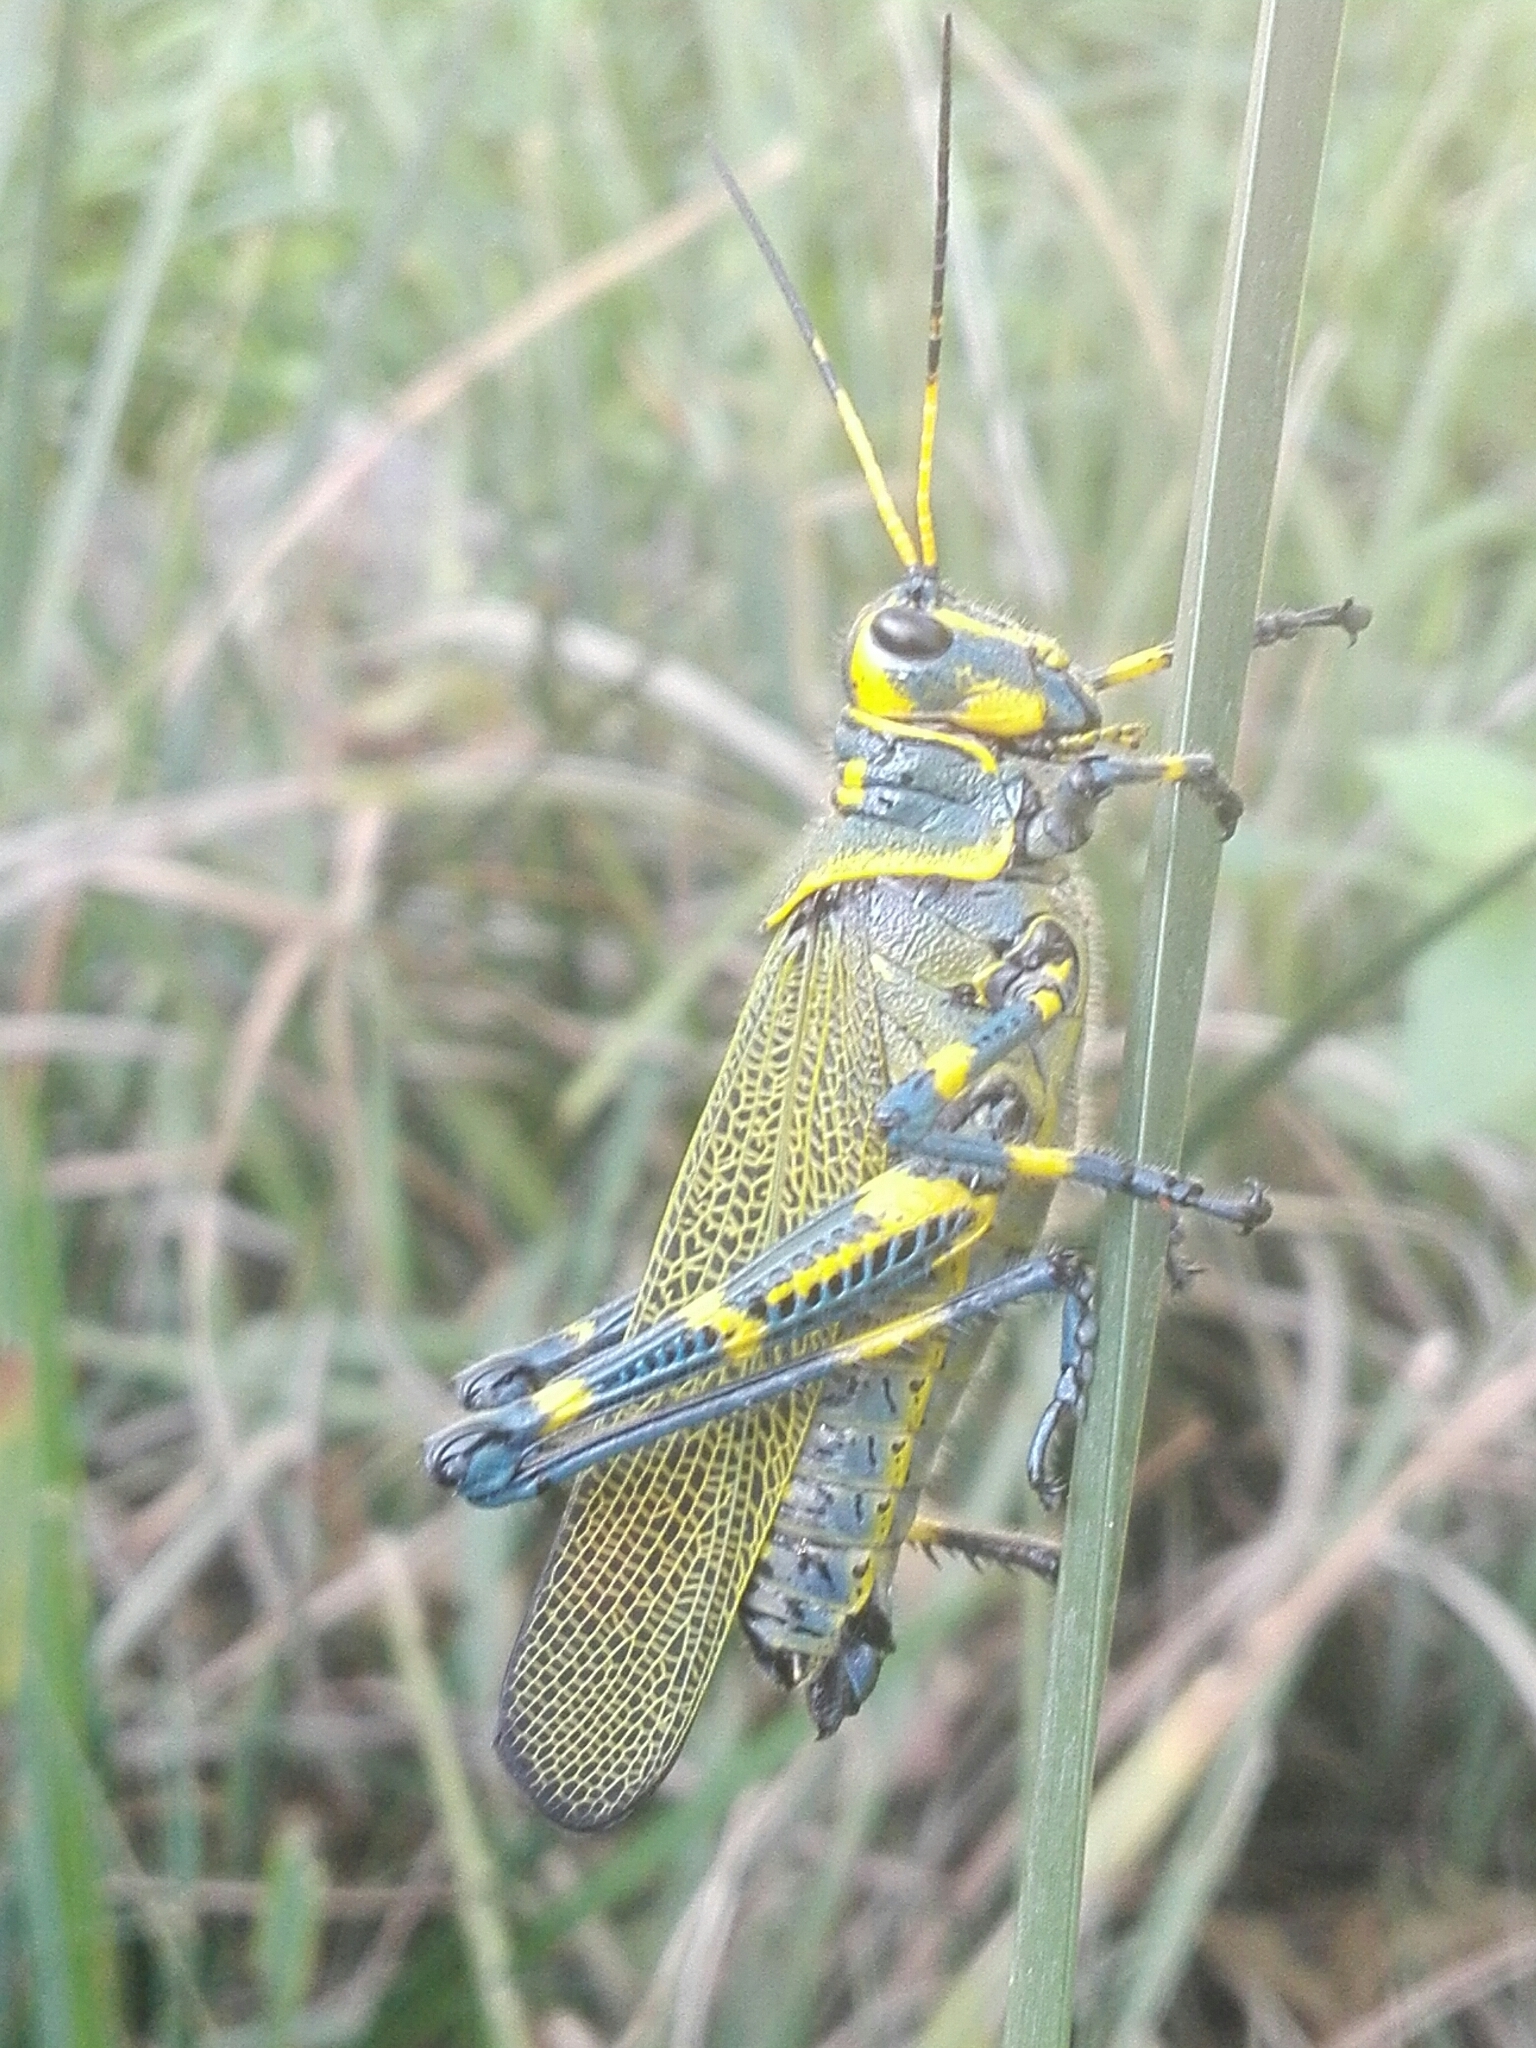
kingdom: Animalia
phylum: Arthropoda
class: Insecta
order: Orthoptera
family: Romaleidae
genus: Chromacris
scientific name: Chromacris colorata
